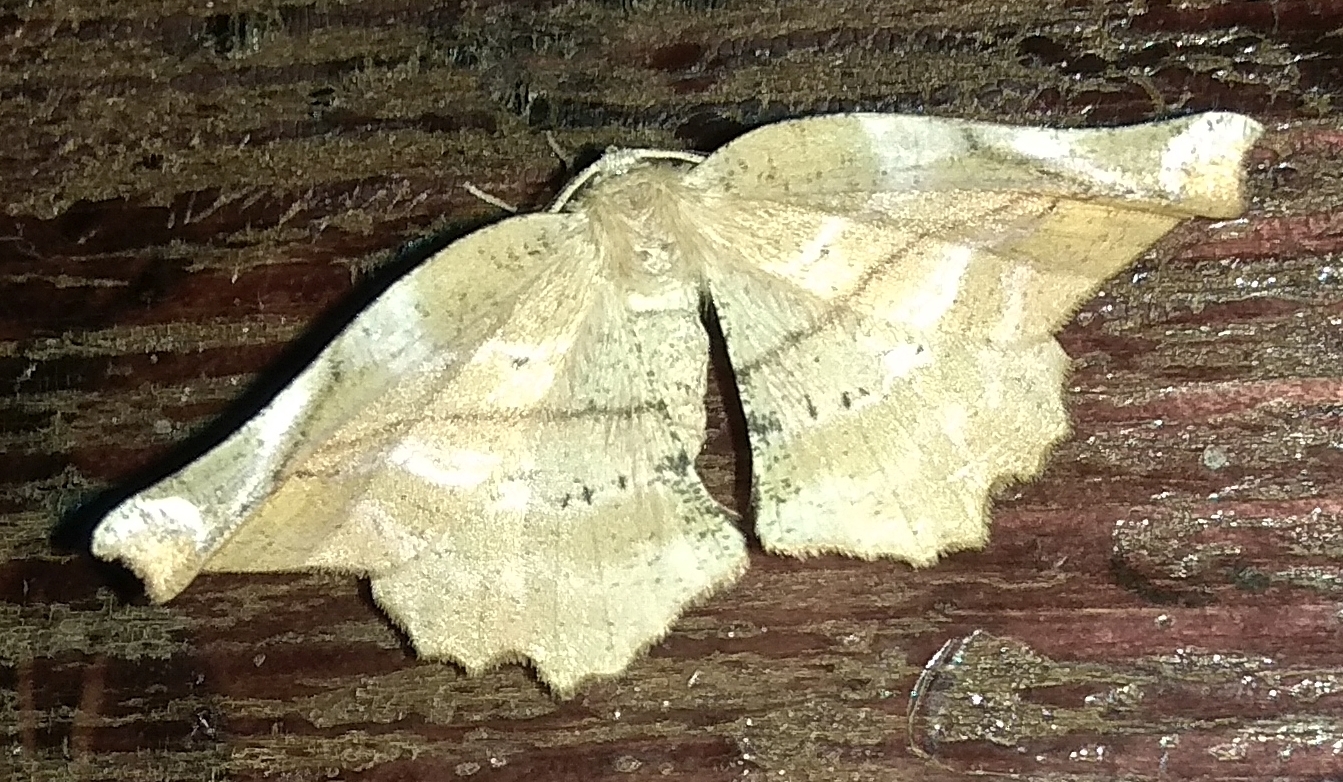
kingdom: Animalia
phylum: Arthropoda
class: Insecta
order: Lepidoptera
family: Geometridae
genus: Apeira
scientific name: Apeira syringaria
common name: Lilac beauty
